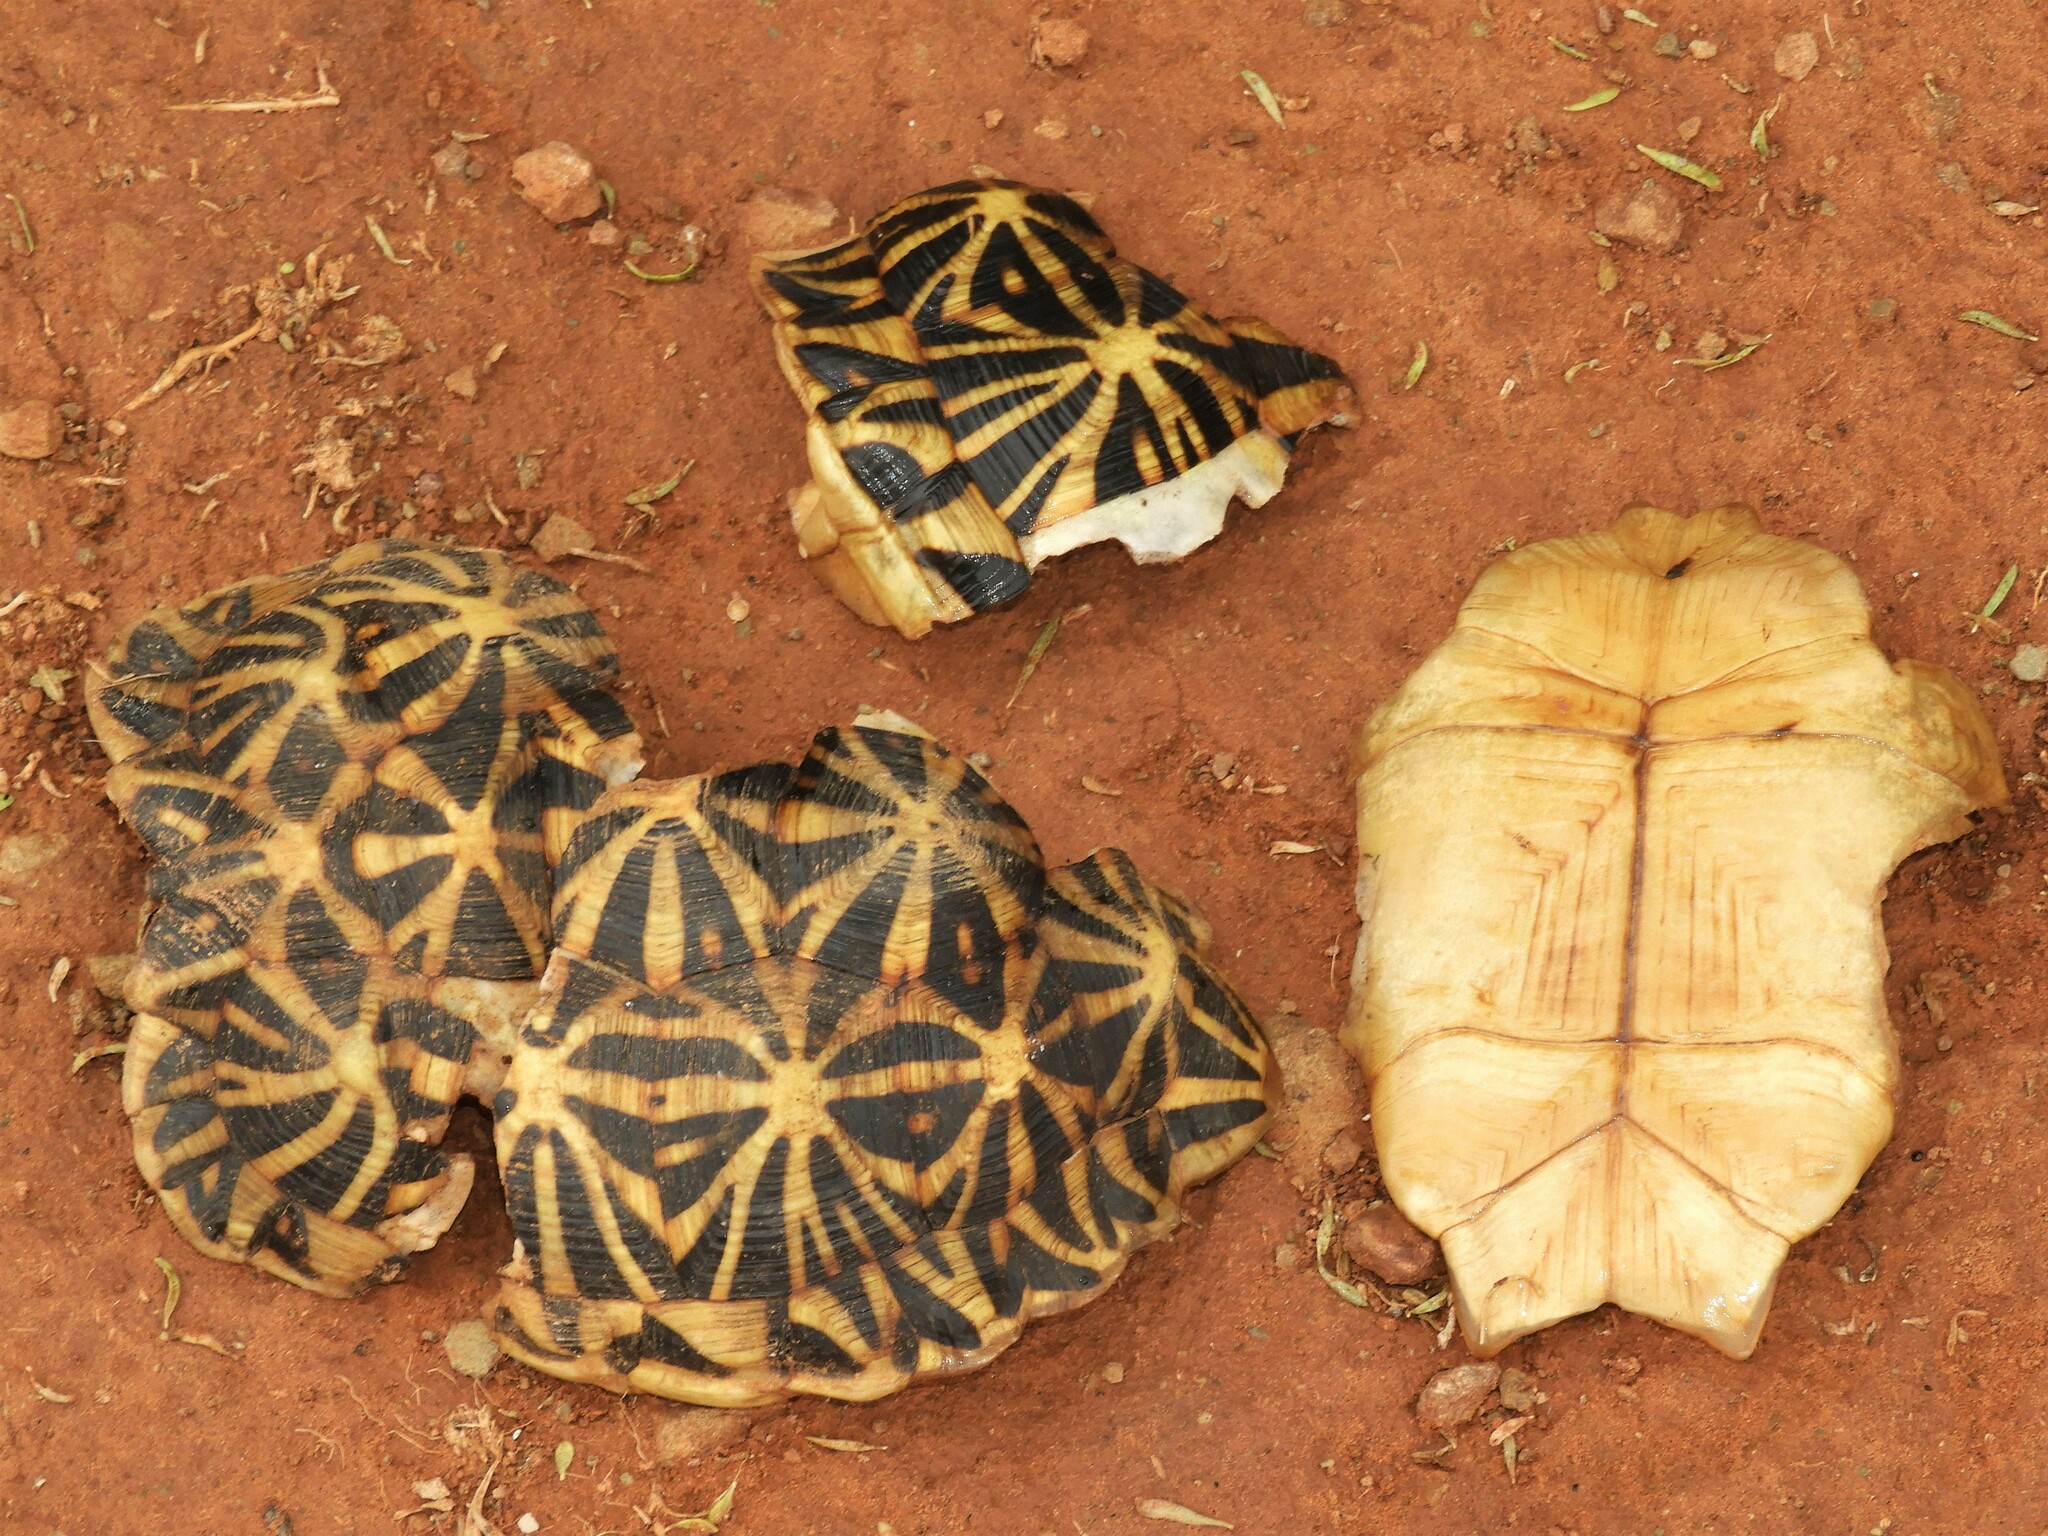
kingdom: Animalia
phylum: Chordata
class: Testudines
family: Testudinidae
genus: Psammobates
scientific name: Psammobates tentorius
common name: Tent tortoise
